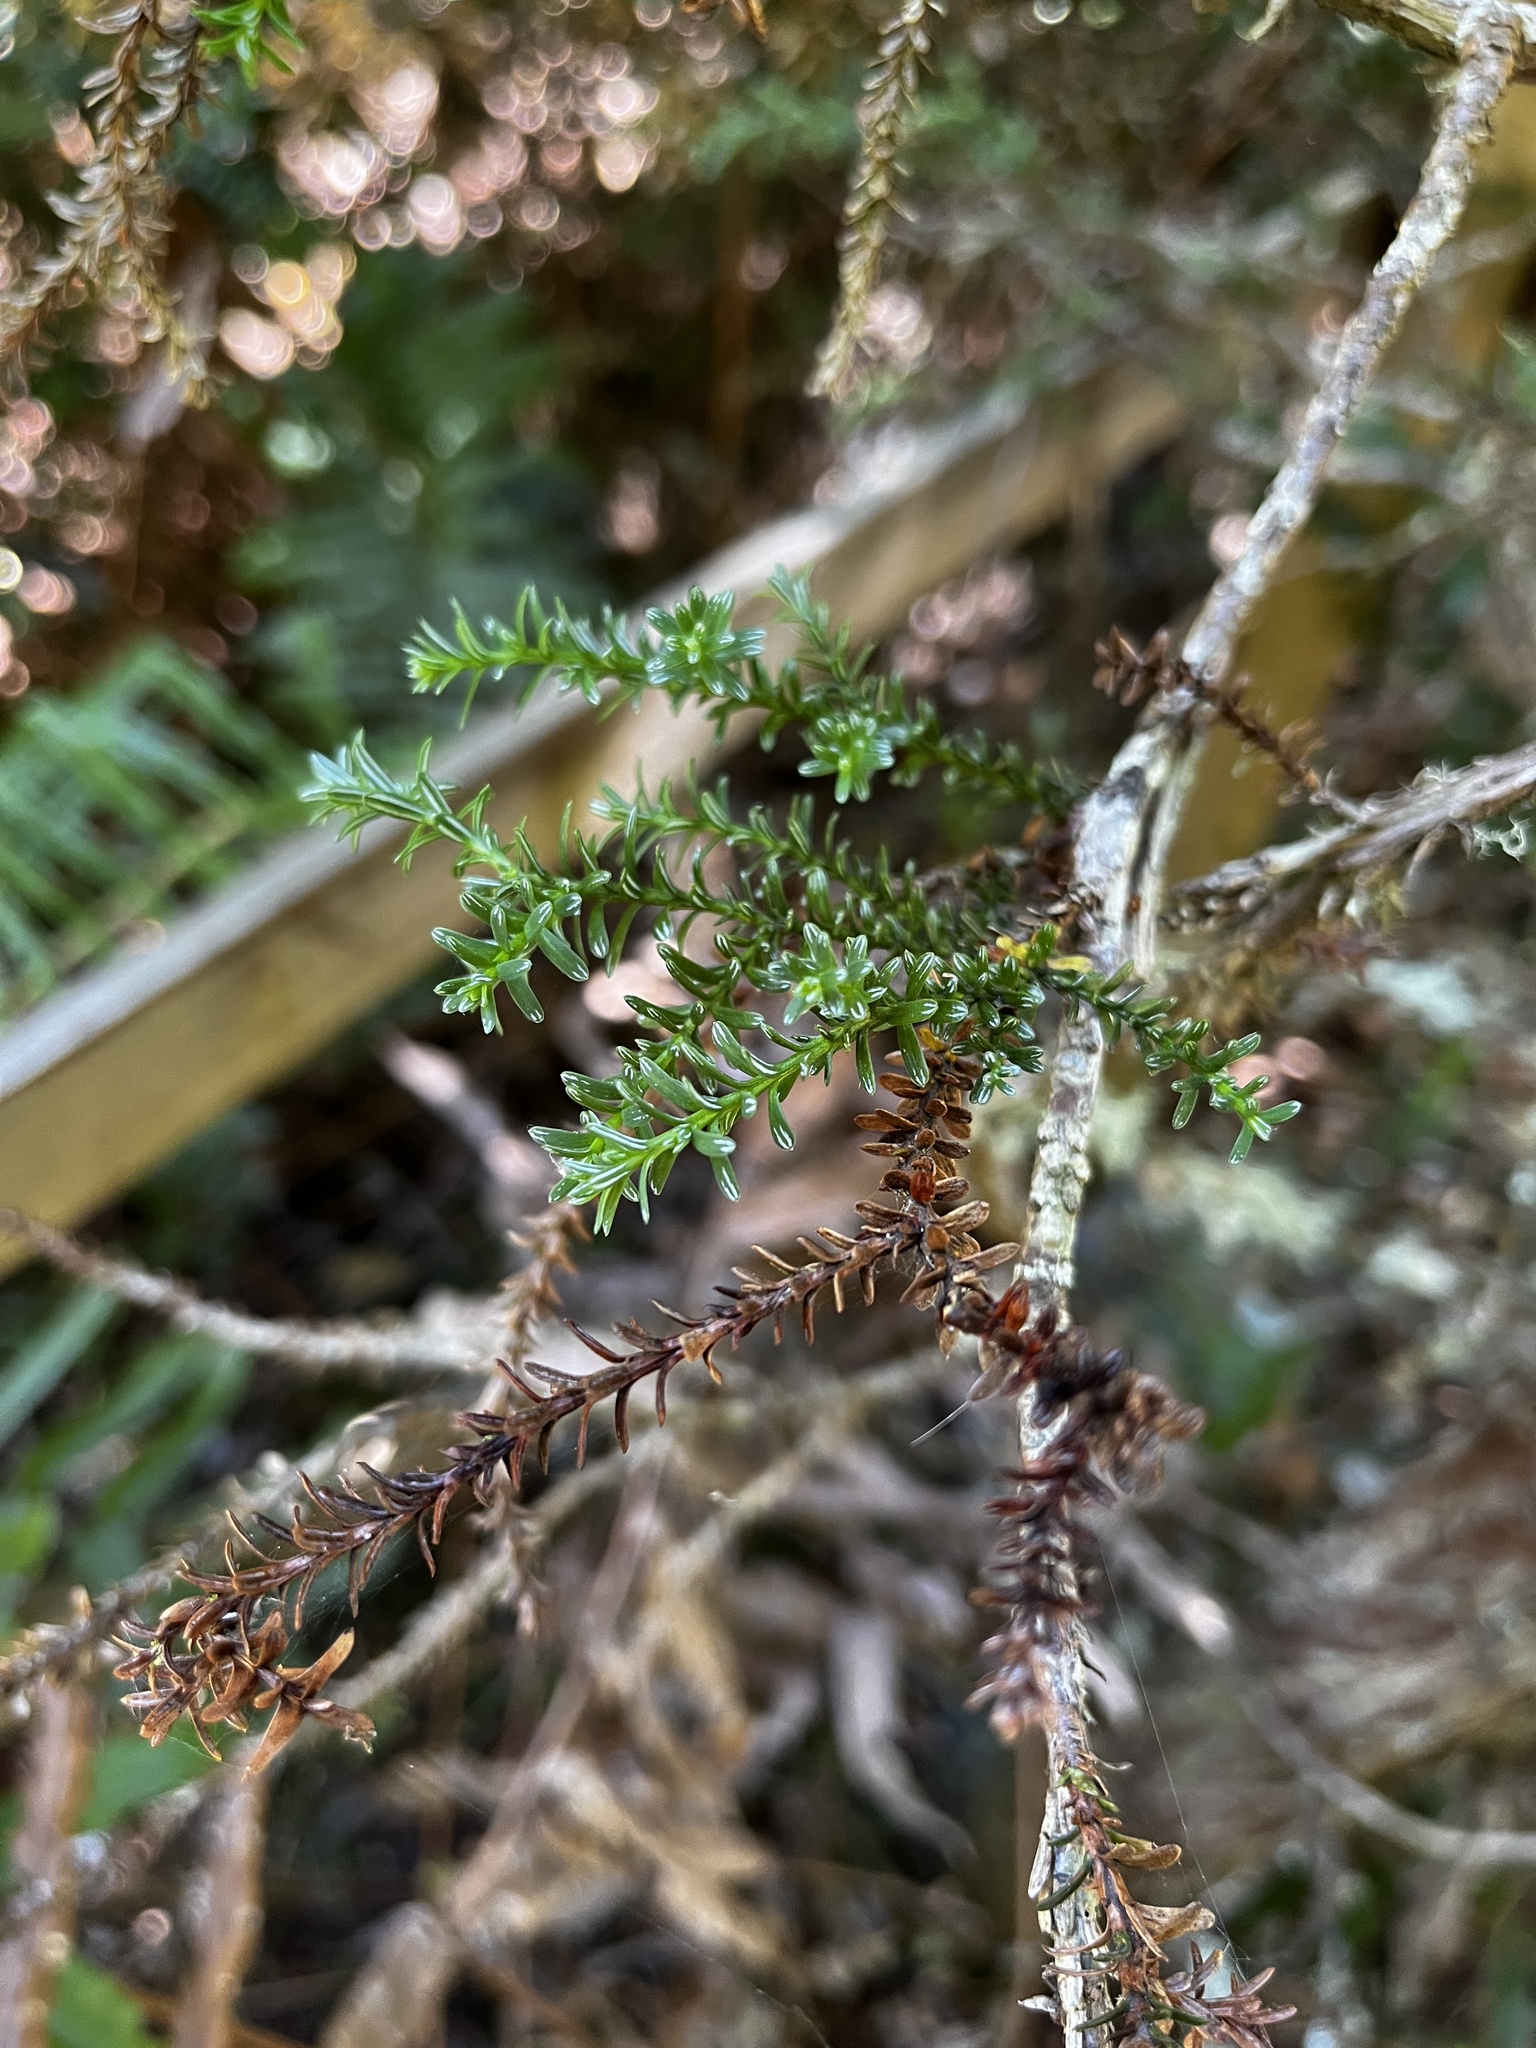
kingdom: Plantae
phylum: Tracheophyta
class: Pinopsida
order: Pinales
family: Cupressaceae
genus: Fitzroya
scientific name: Fitzroya cupressoides
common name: Patagonian cypress
